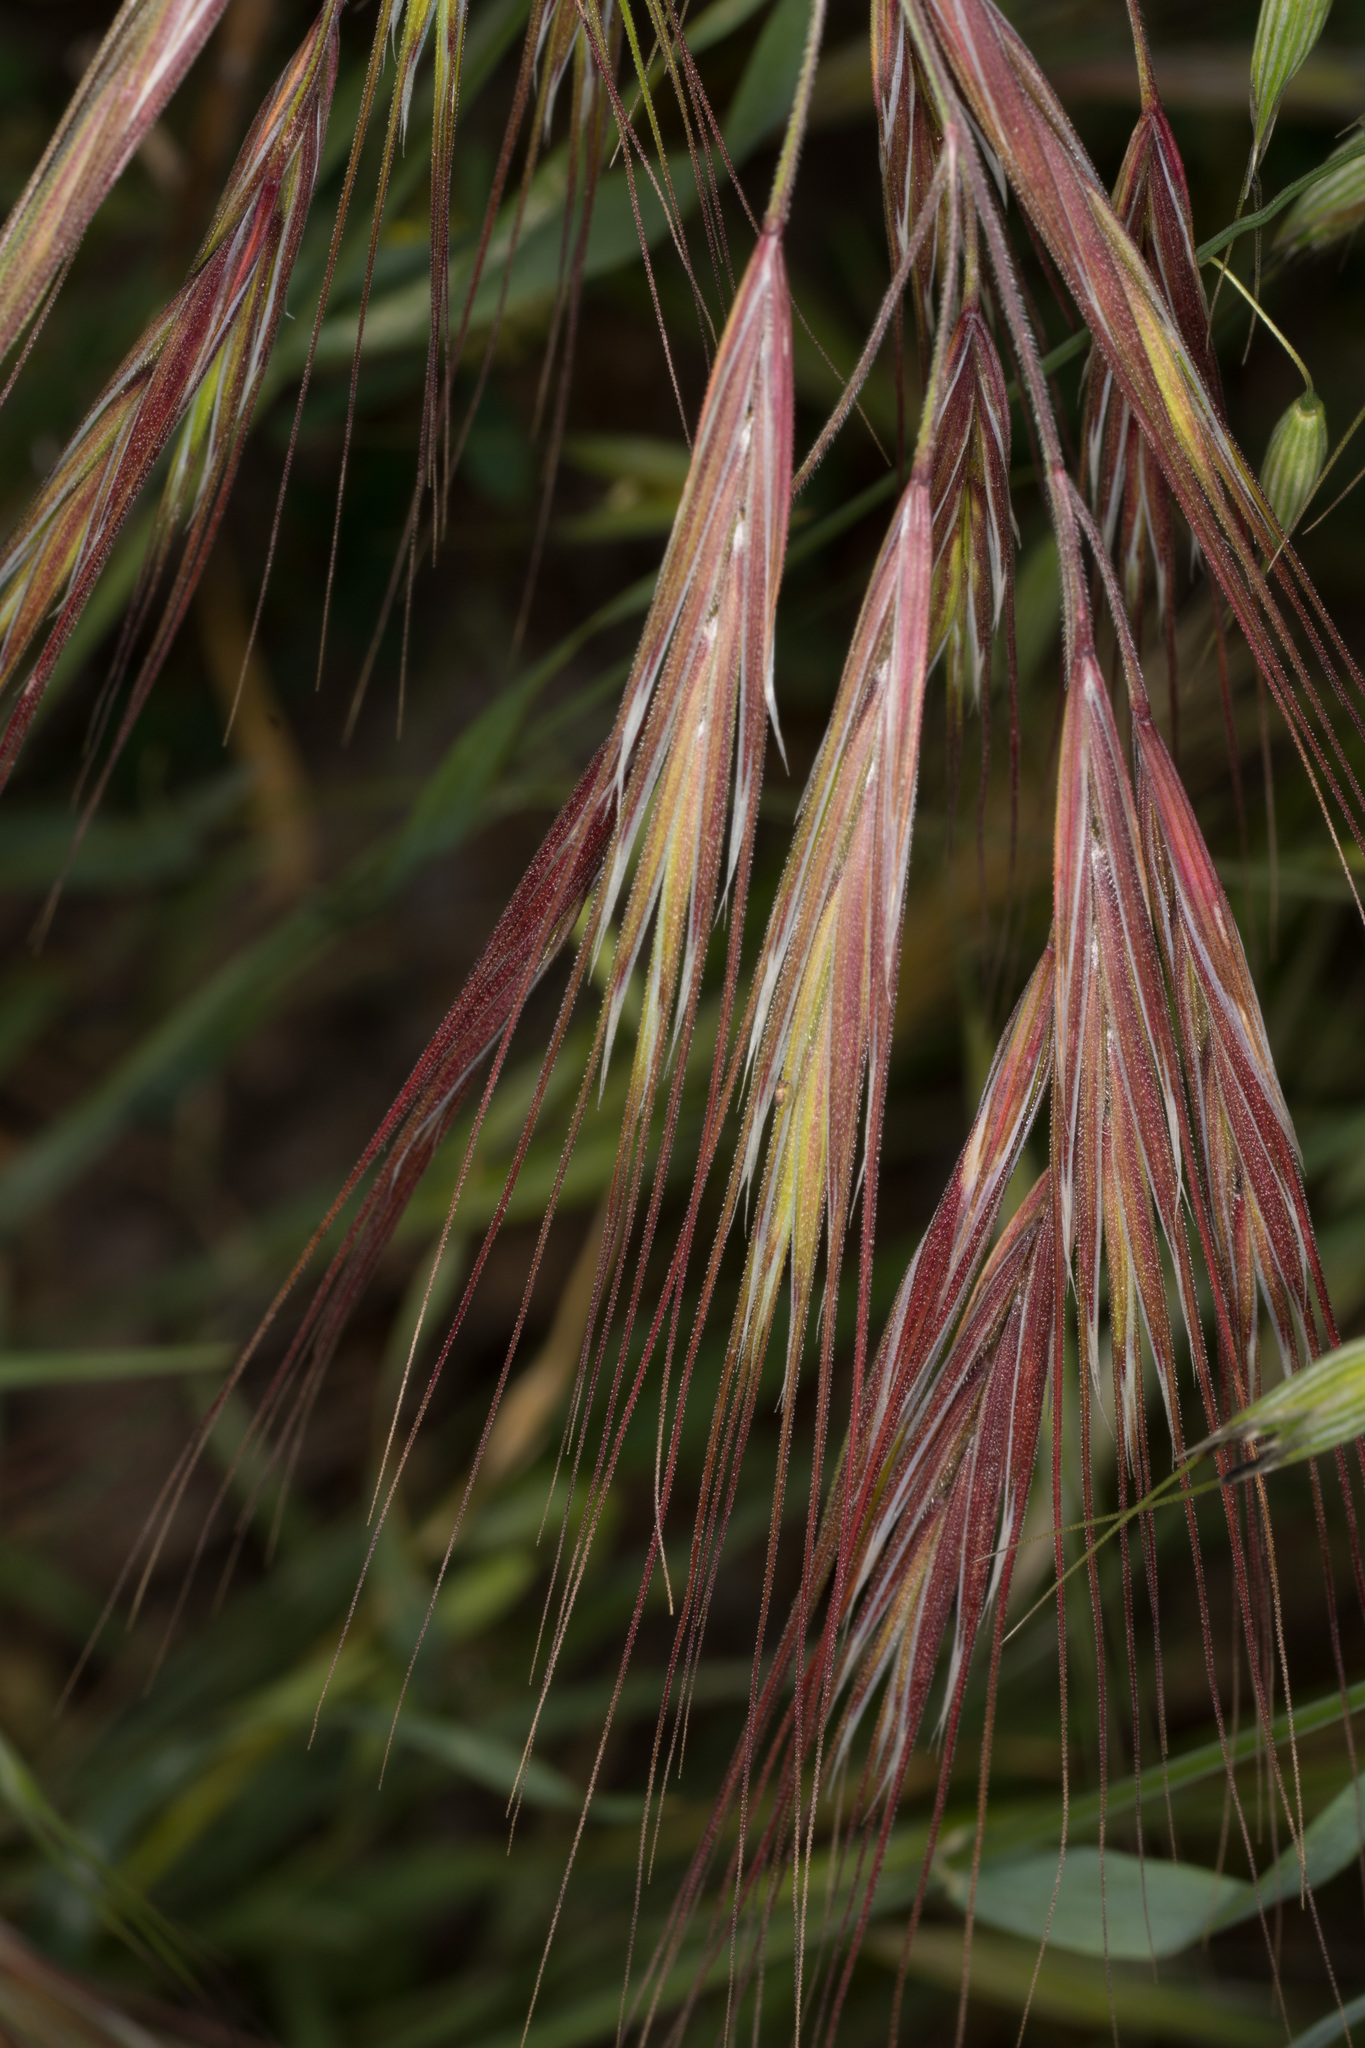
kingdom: Plantae
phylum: Tracheophyta
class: Liliopsida
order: Poales
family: Poaceae
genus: Bromus
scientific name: Bromus diandrus
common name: Ripgut brome
